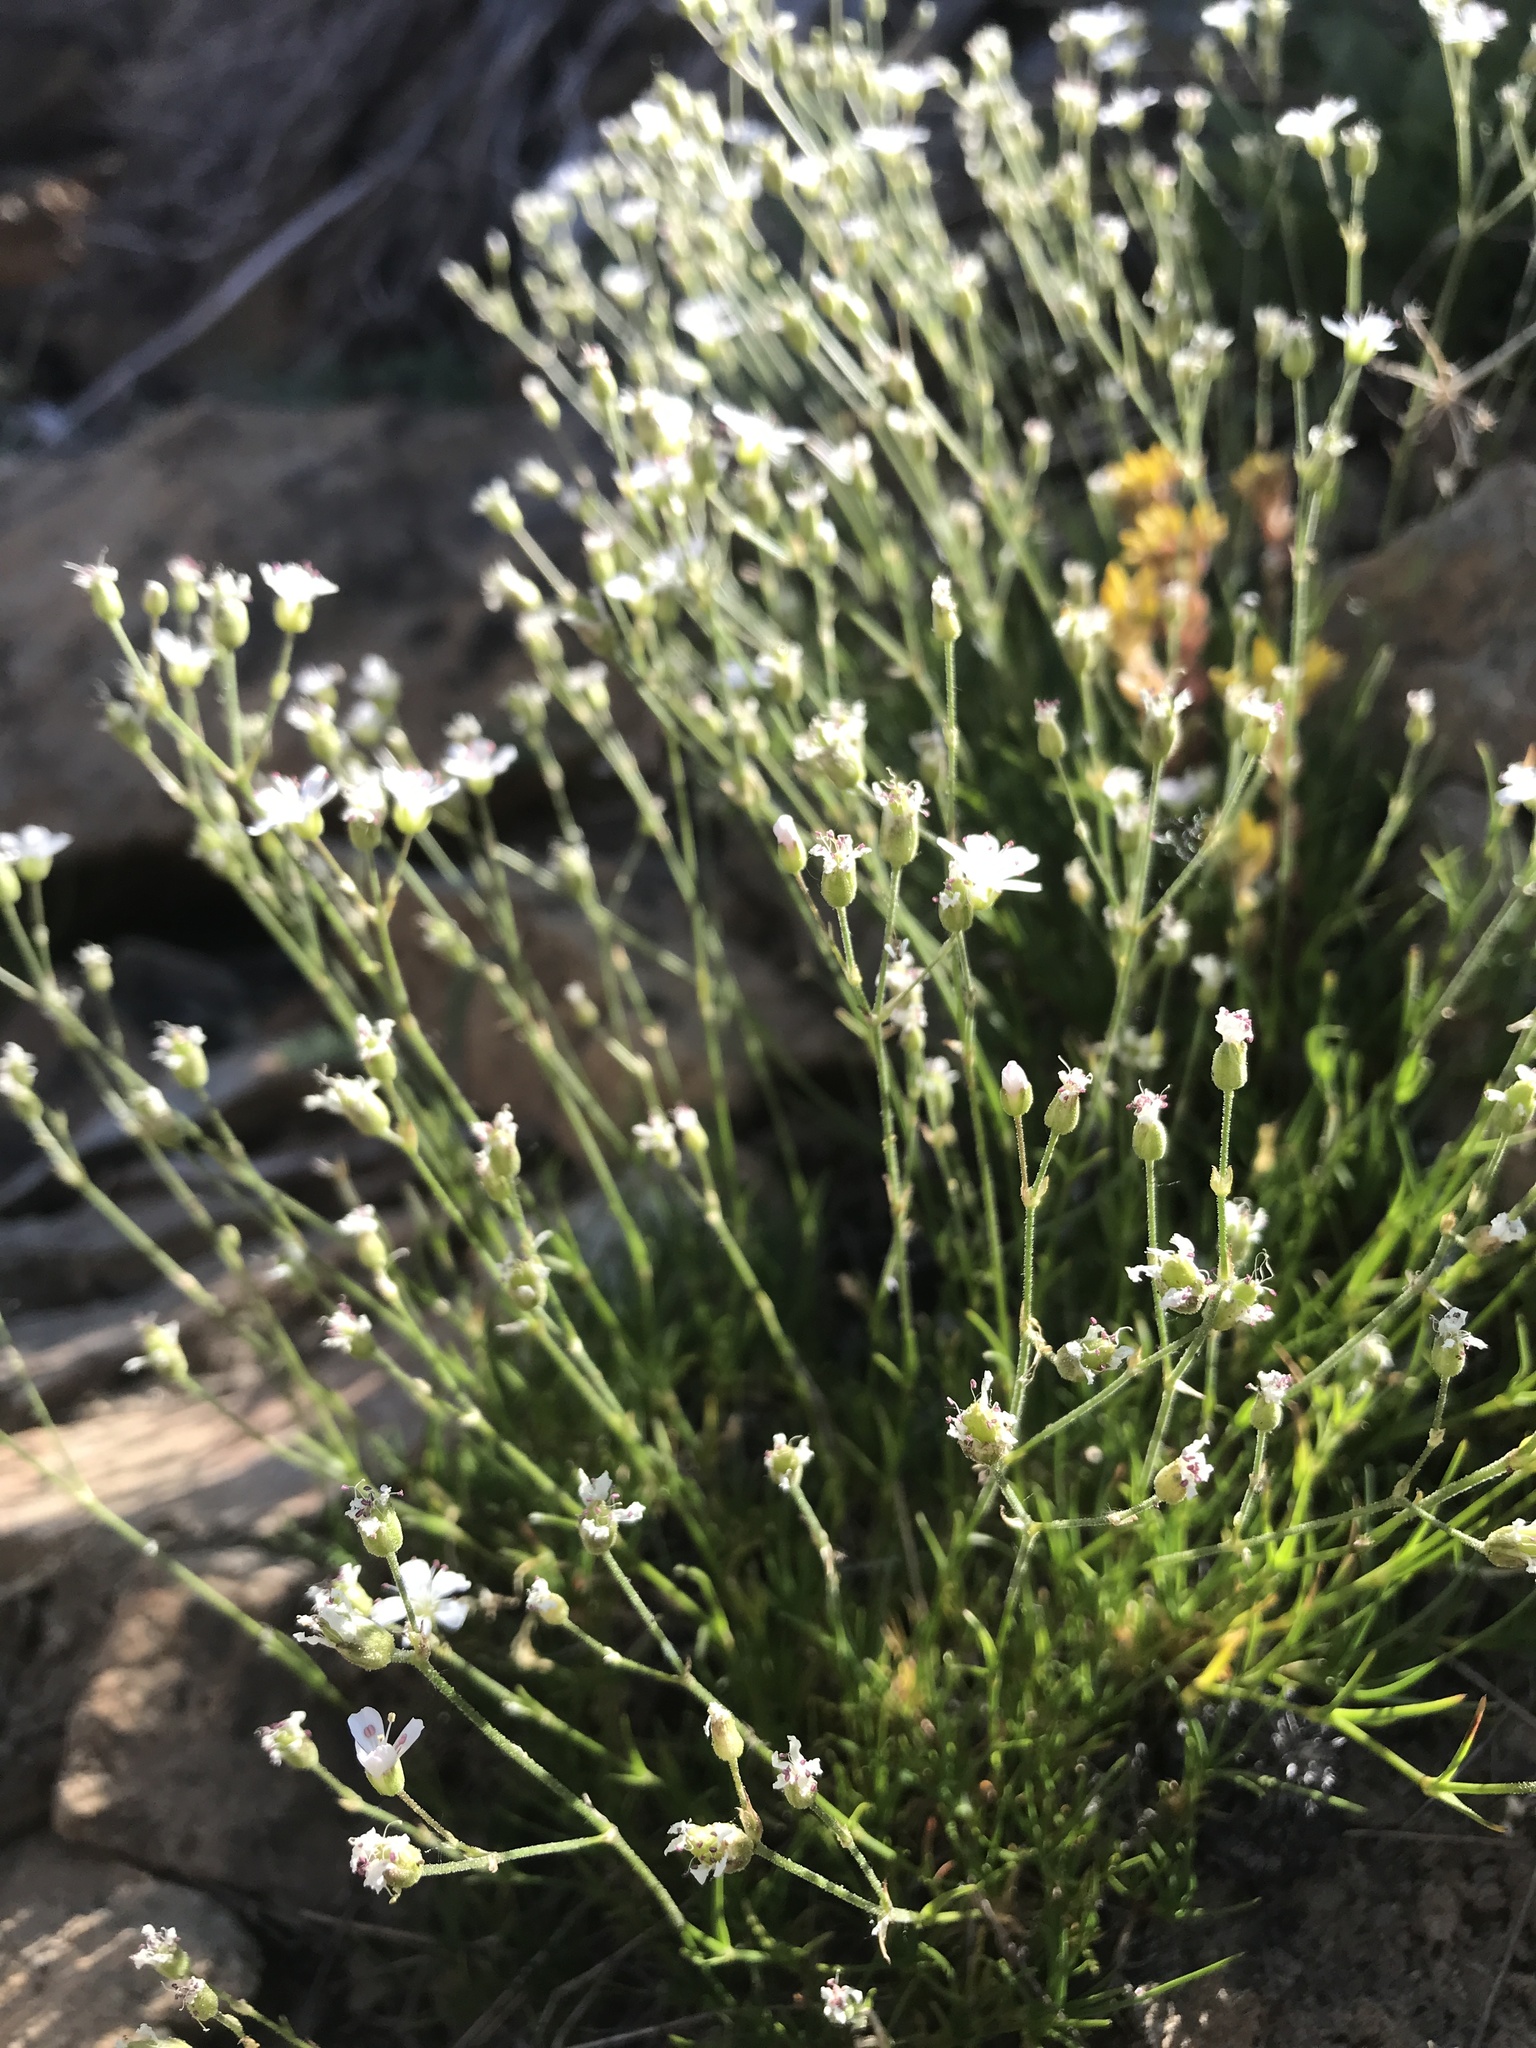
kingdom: Plantae
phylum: Tracheophyta
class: Magnoliopsida
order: Caryophyllales
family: Caryophyllaceae
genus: Eremogone
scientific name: Eremogone capillaris
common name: Slender mountain sandwort
